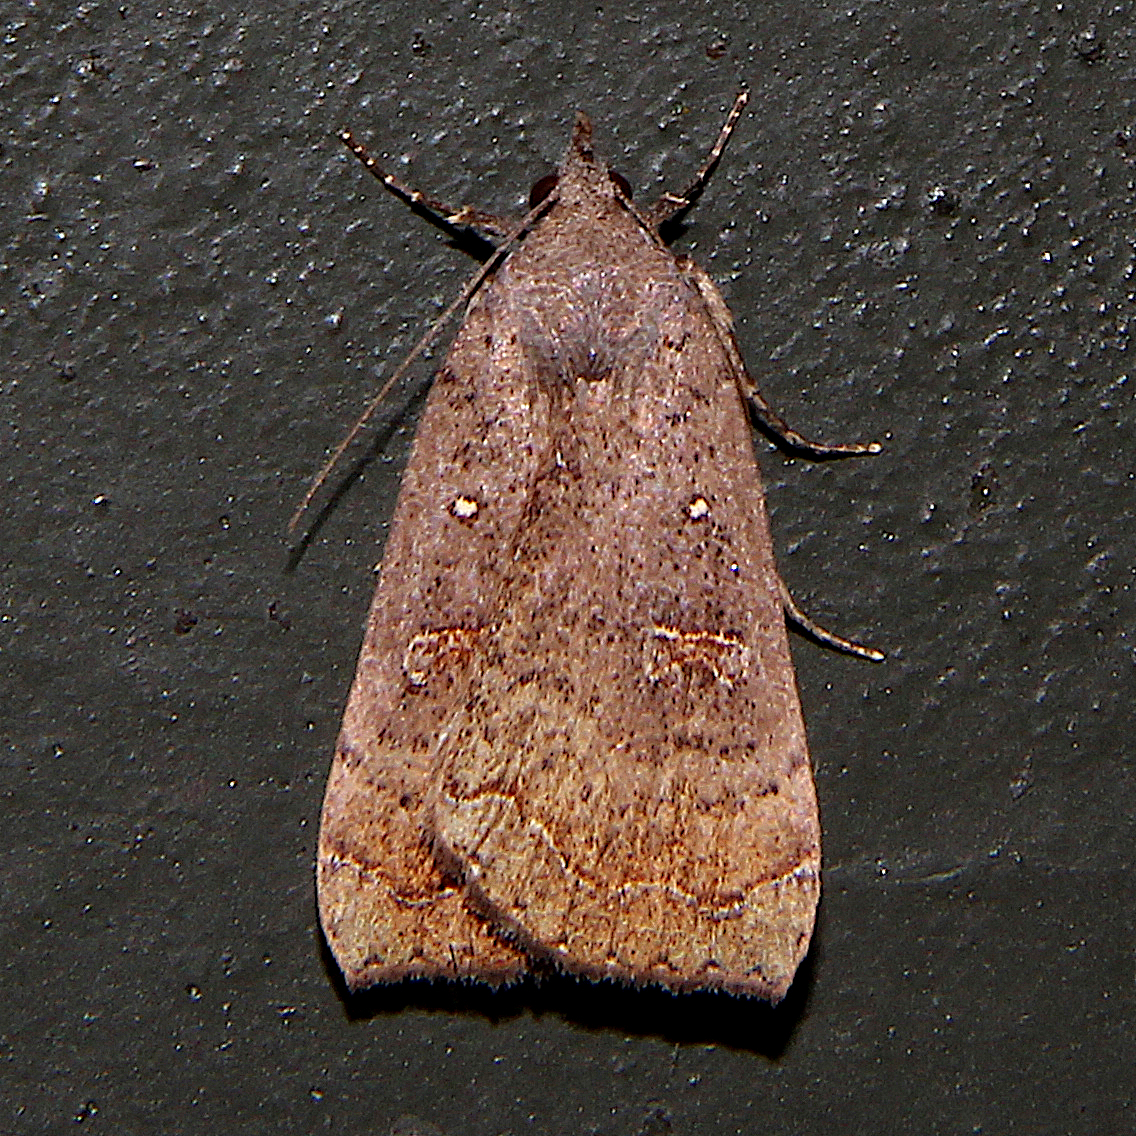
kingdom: Animalia
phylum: Arthropoda
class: Insecta
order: Lepidoptera
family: Erebidae
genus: Rhapsa
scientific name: Rhapsa scotosialis
